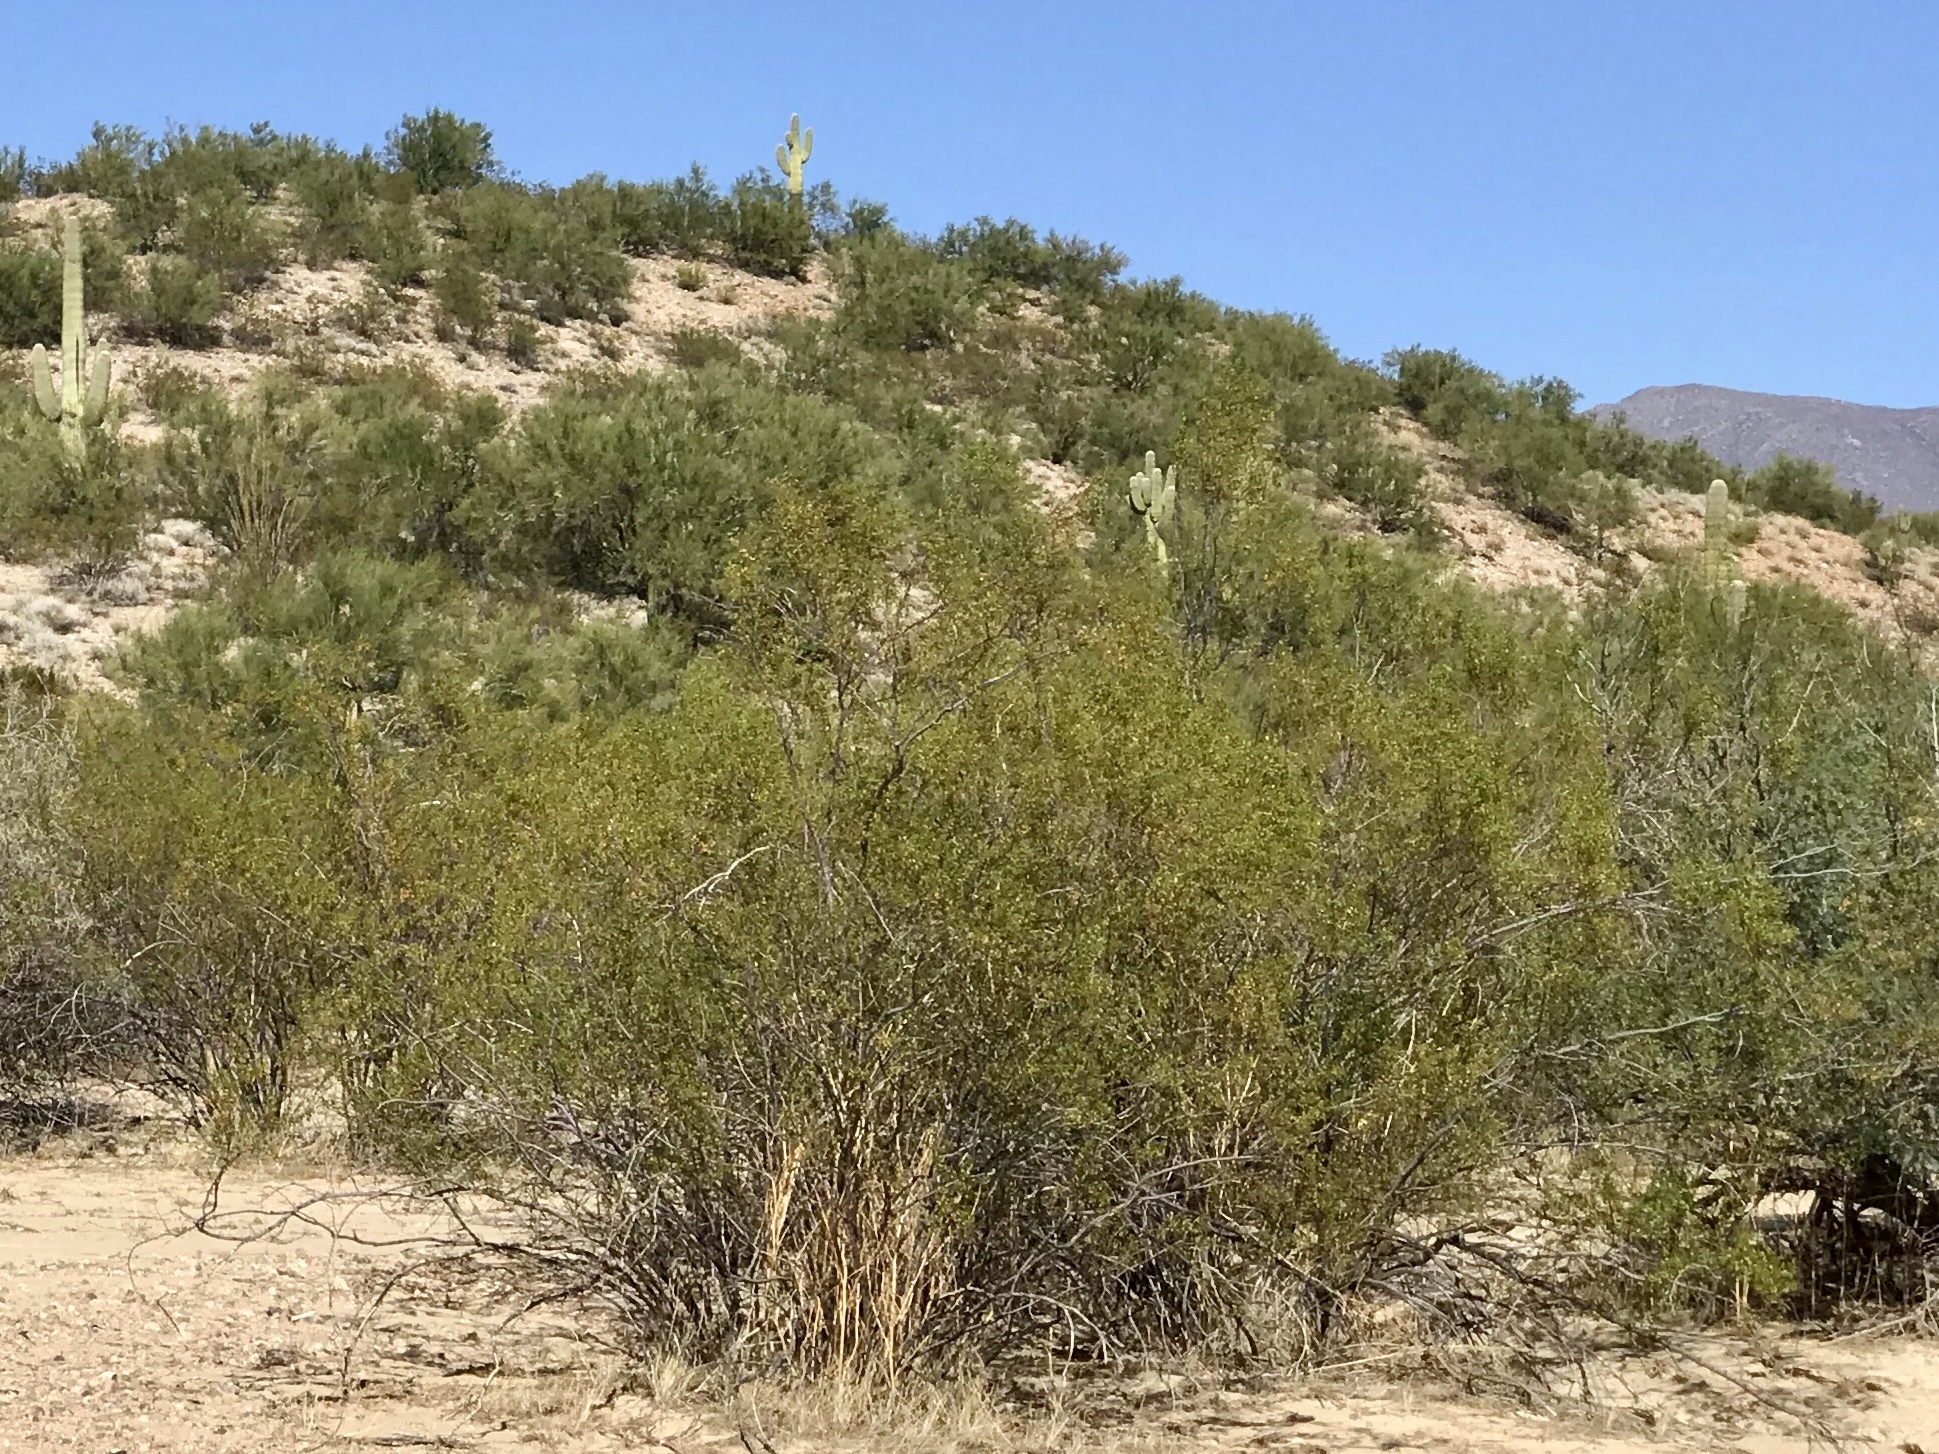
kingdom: Plantae
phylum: Tracheophyta
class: Magnoliopsida
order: Zygophyllales
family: Zygophyllaceae
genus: Larrea
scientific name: Larrea tridentata
